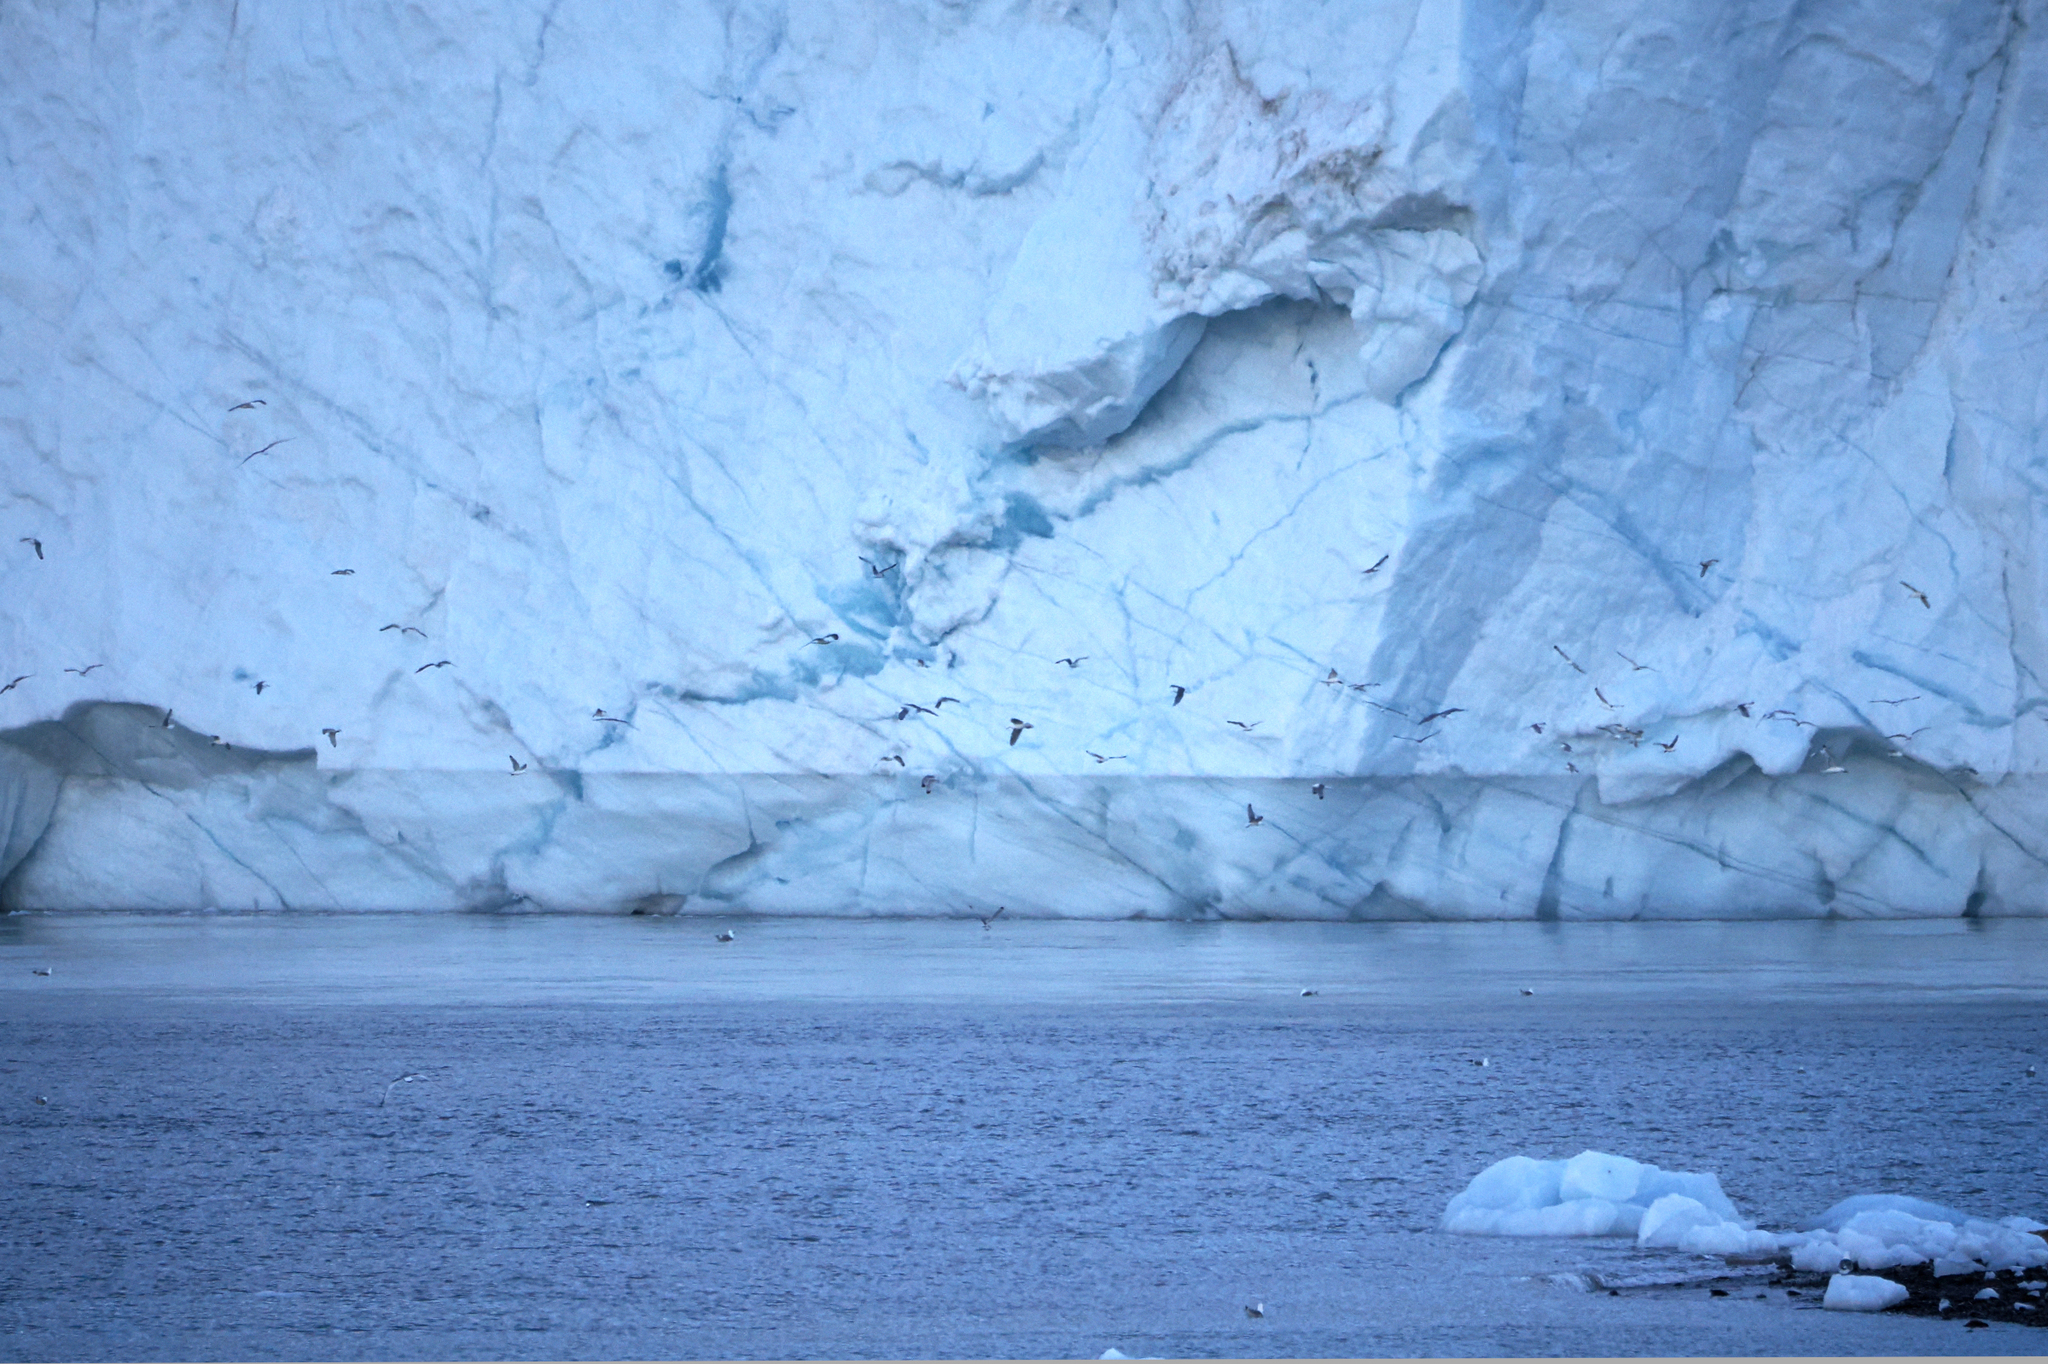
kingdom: Animalia
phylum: Chordata
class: Aves
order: Charadriiformes
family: Laridae
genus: Rissa
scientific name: Rissa tridactyla
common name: Black-legged kittiwake
